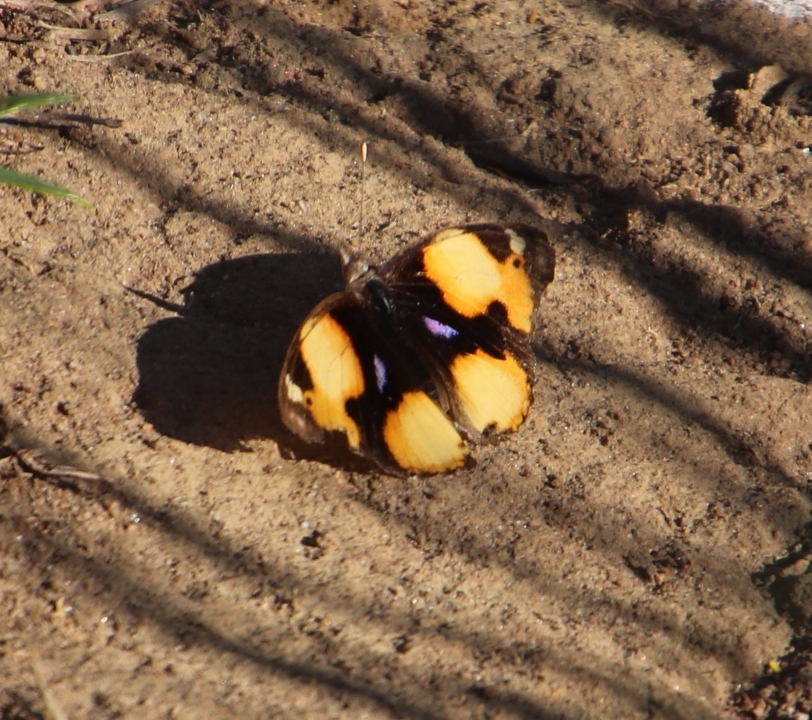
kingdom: Animalia
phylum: Arthropoda
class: Insecta
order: Lepidoptera
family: Nymphalidae
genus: Junonia
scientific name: Junonia hierta
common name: Yellow pansy
